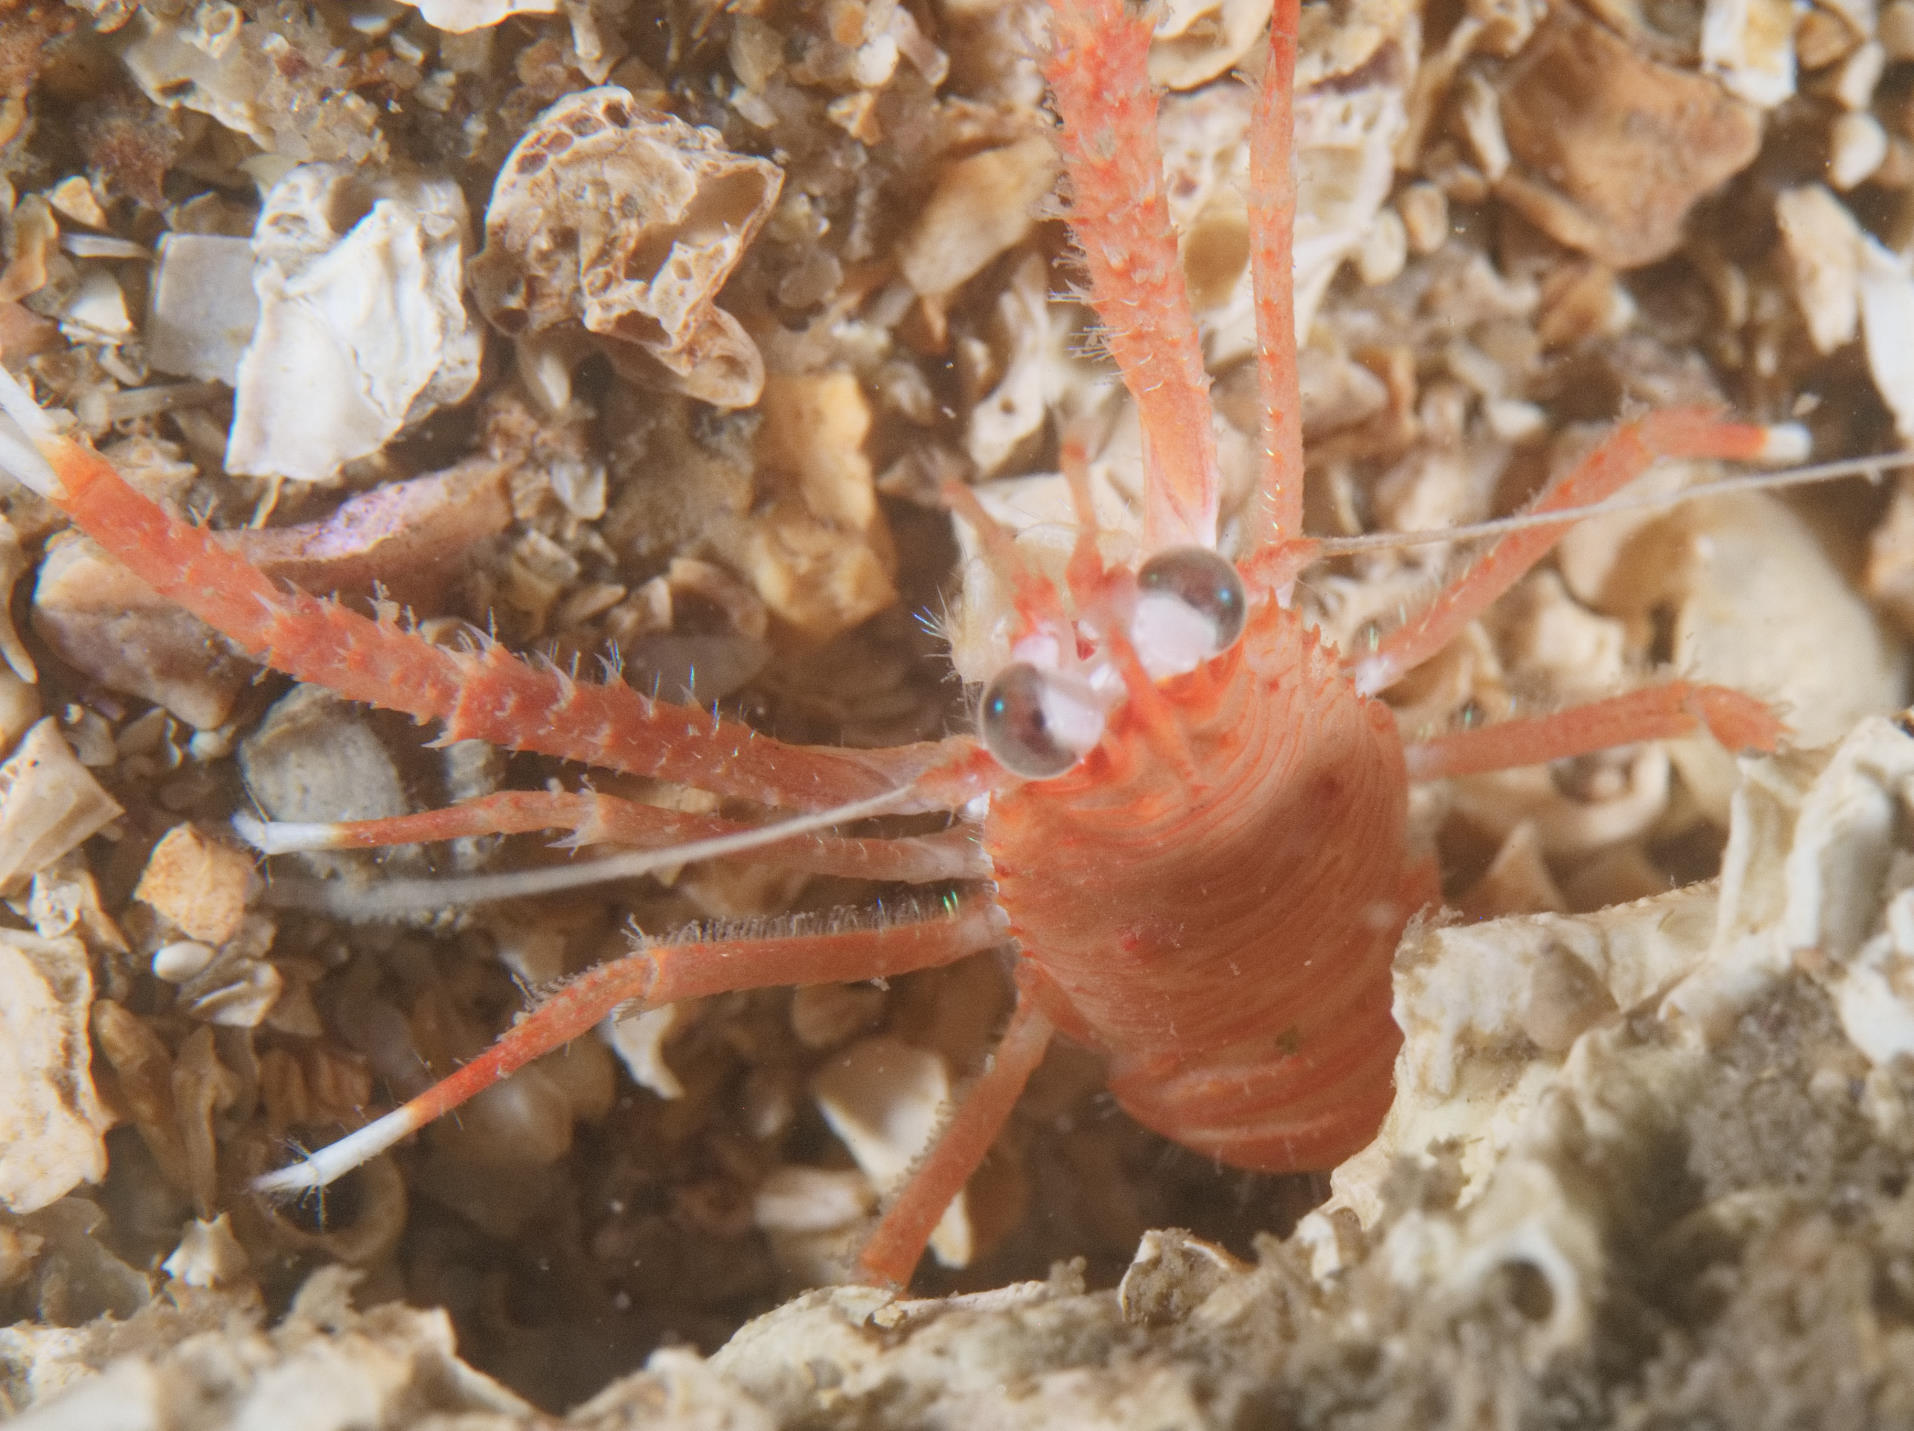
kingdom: Animalia
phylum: Arthropoda
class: Malacostraca
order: Decapoda
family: Munididae
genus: Munida
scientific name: Munida rugosa
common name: Rugose squat lobster
